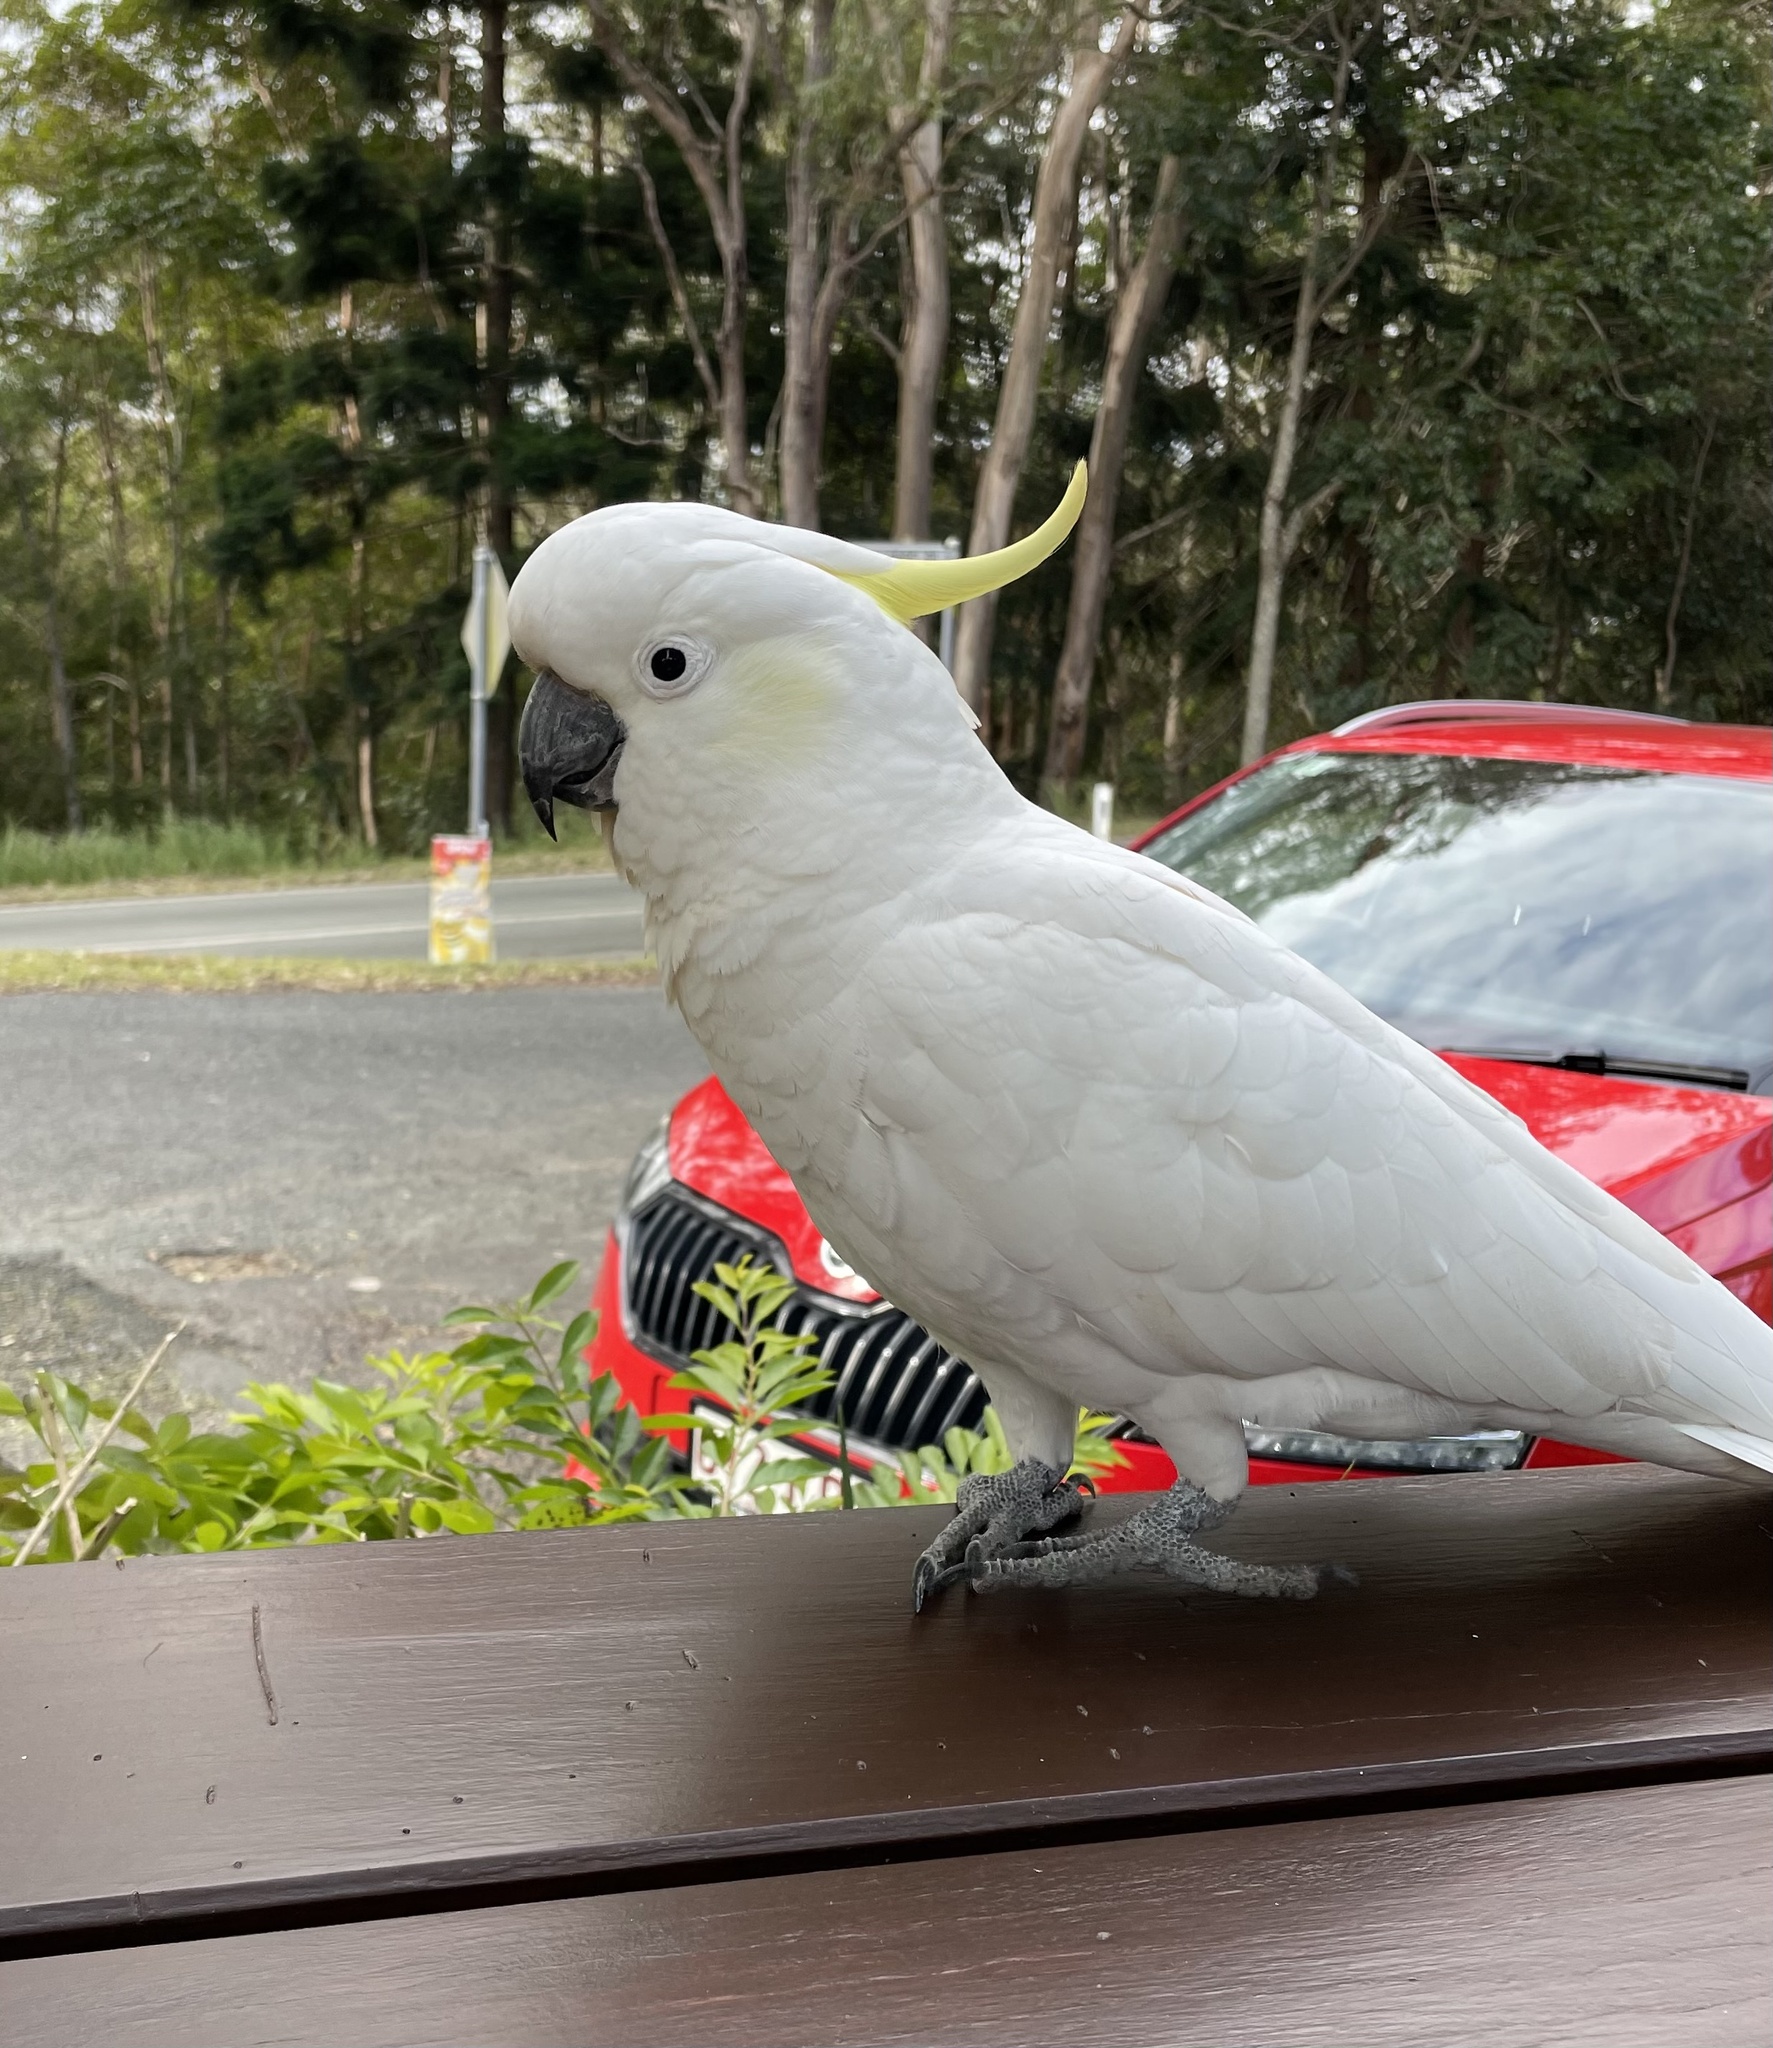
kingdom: Animalia
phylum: Chordata
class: Aves
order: Psittaciformes
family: Psittacidae
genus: Cacatua
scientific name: Cacatua galerita
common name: Sulphur-crested cockatoo
